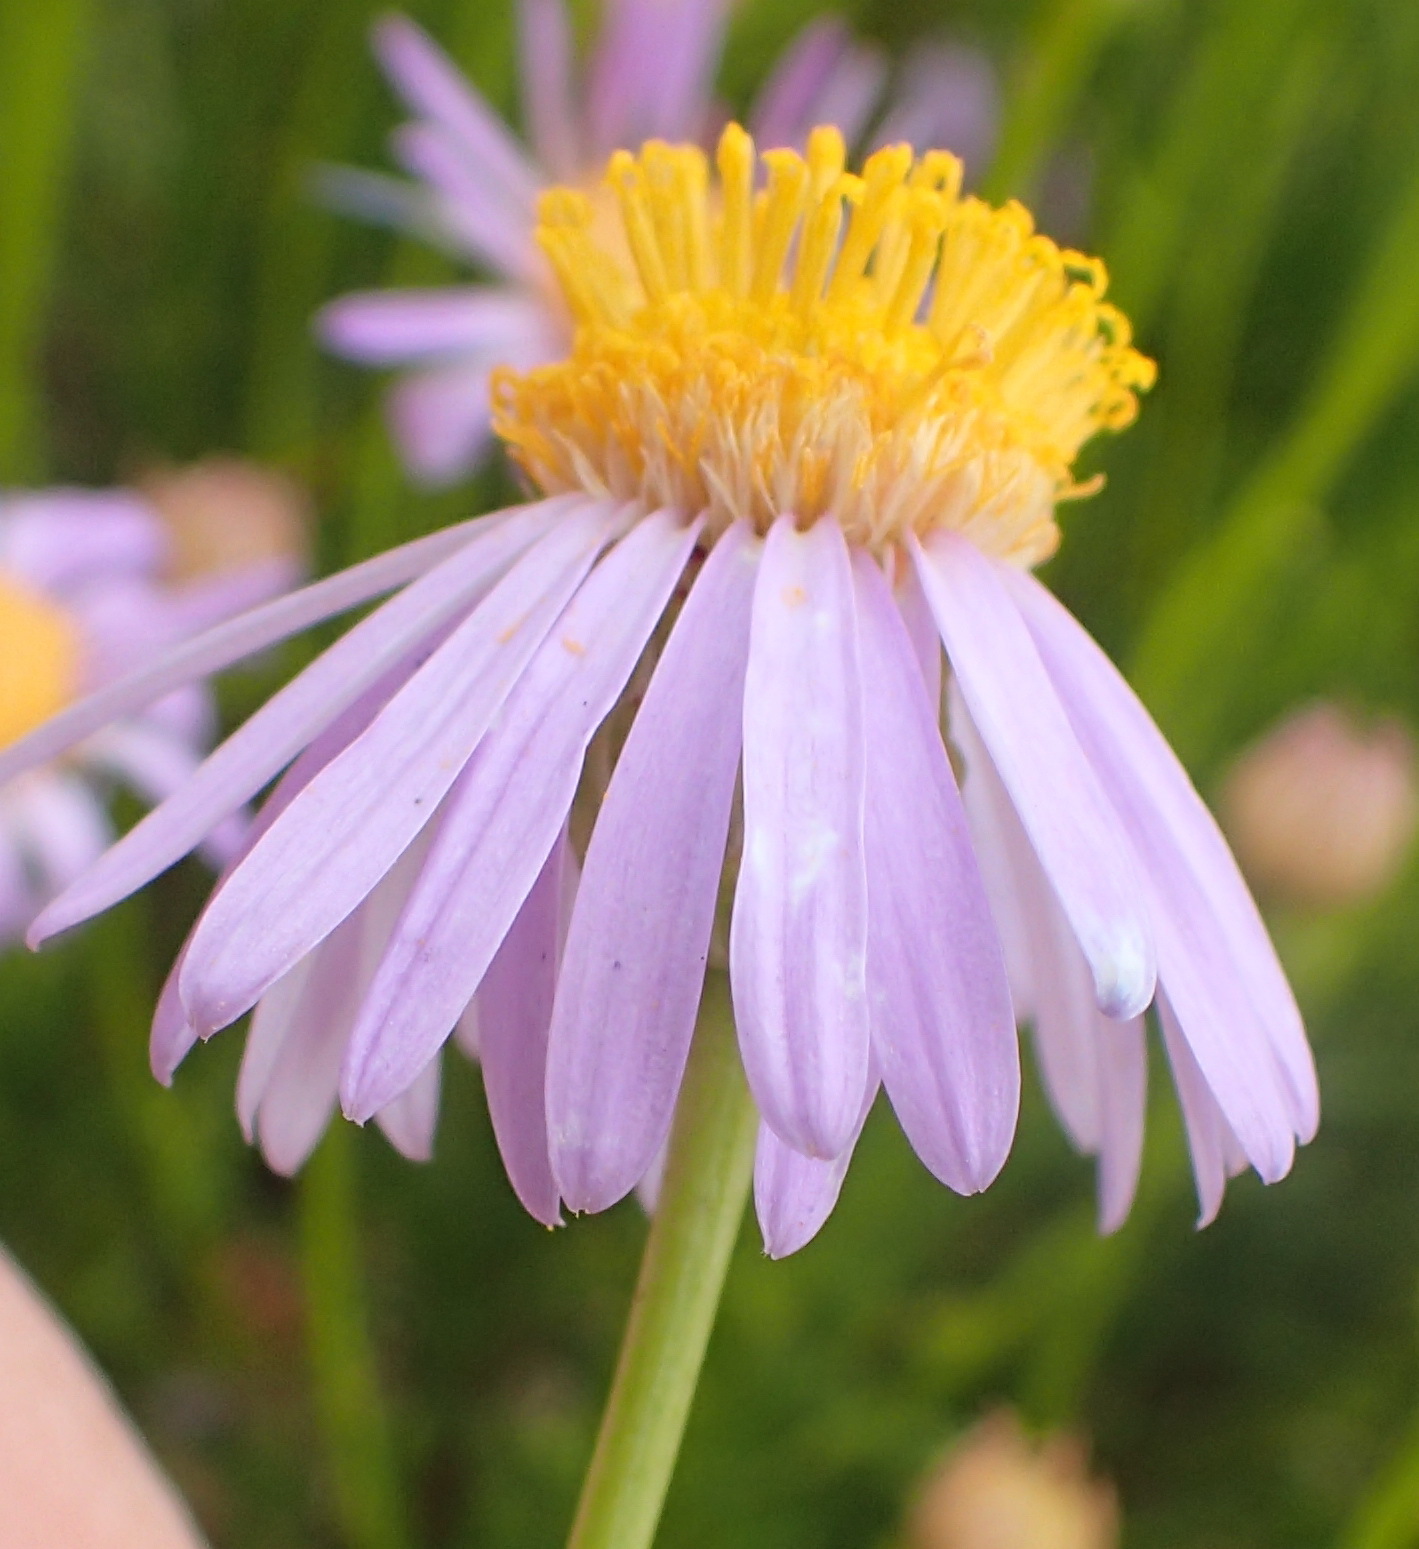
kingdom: Plantae
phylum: Tracheophyta
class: Magnoliopsida
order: Asterales
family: Asteraceae
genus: Felicia
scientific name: Felicia filifolia
